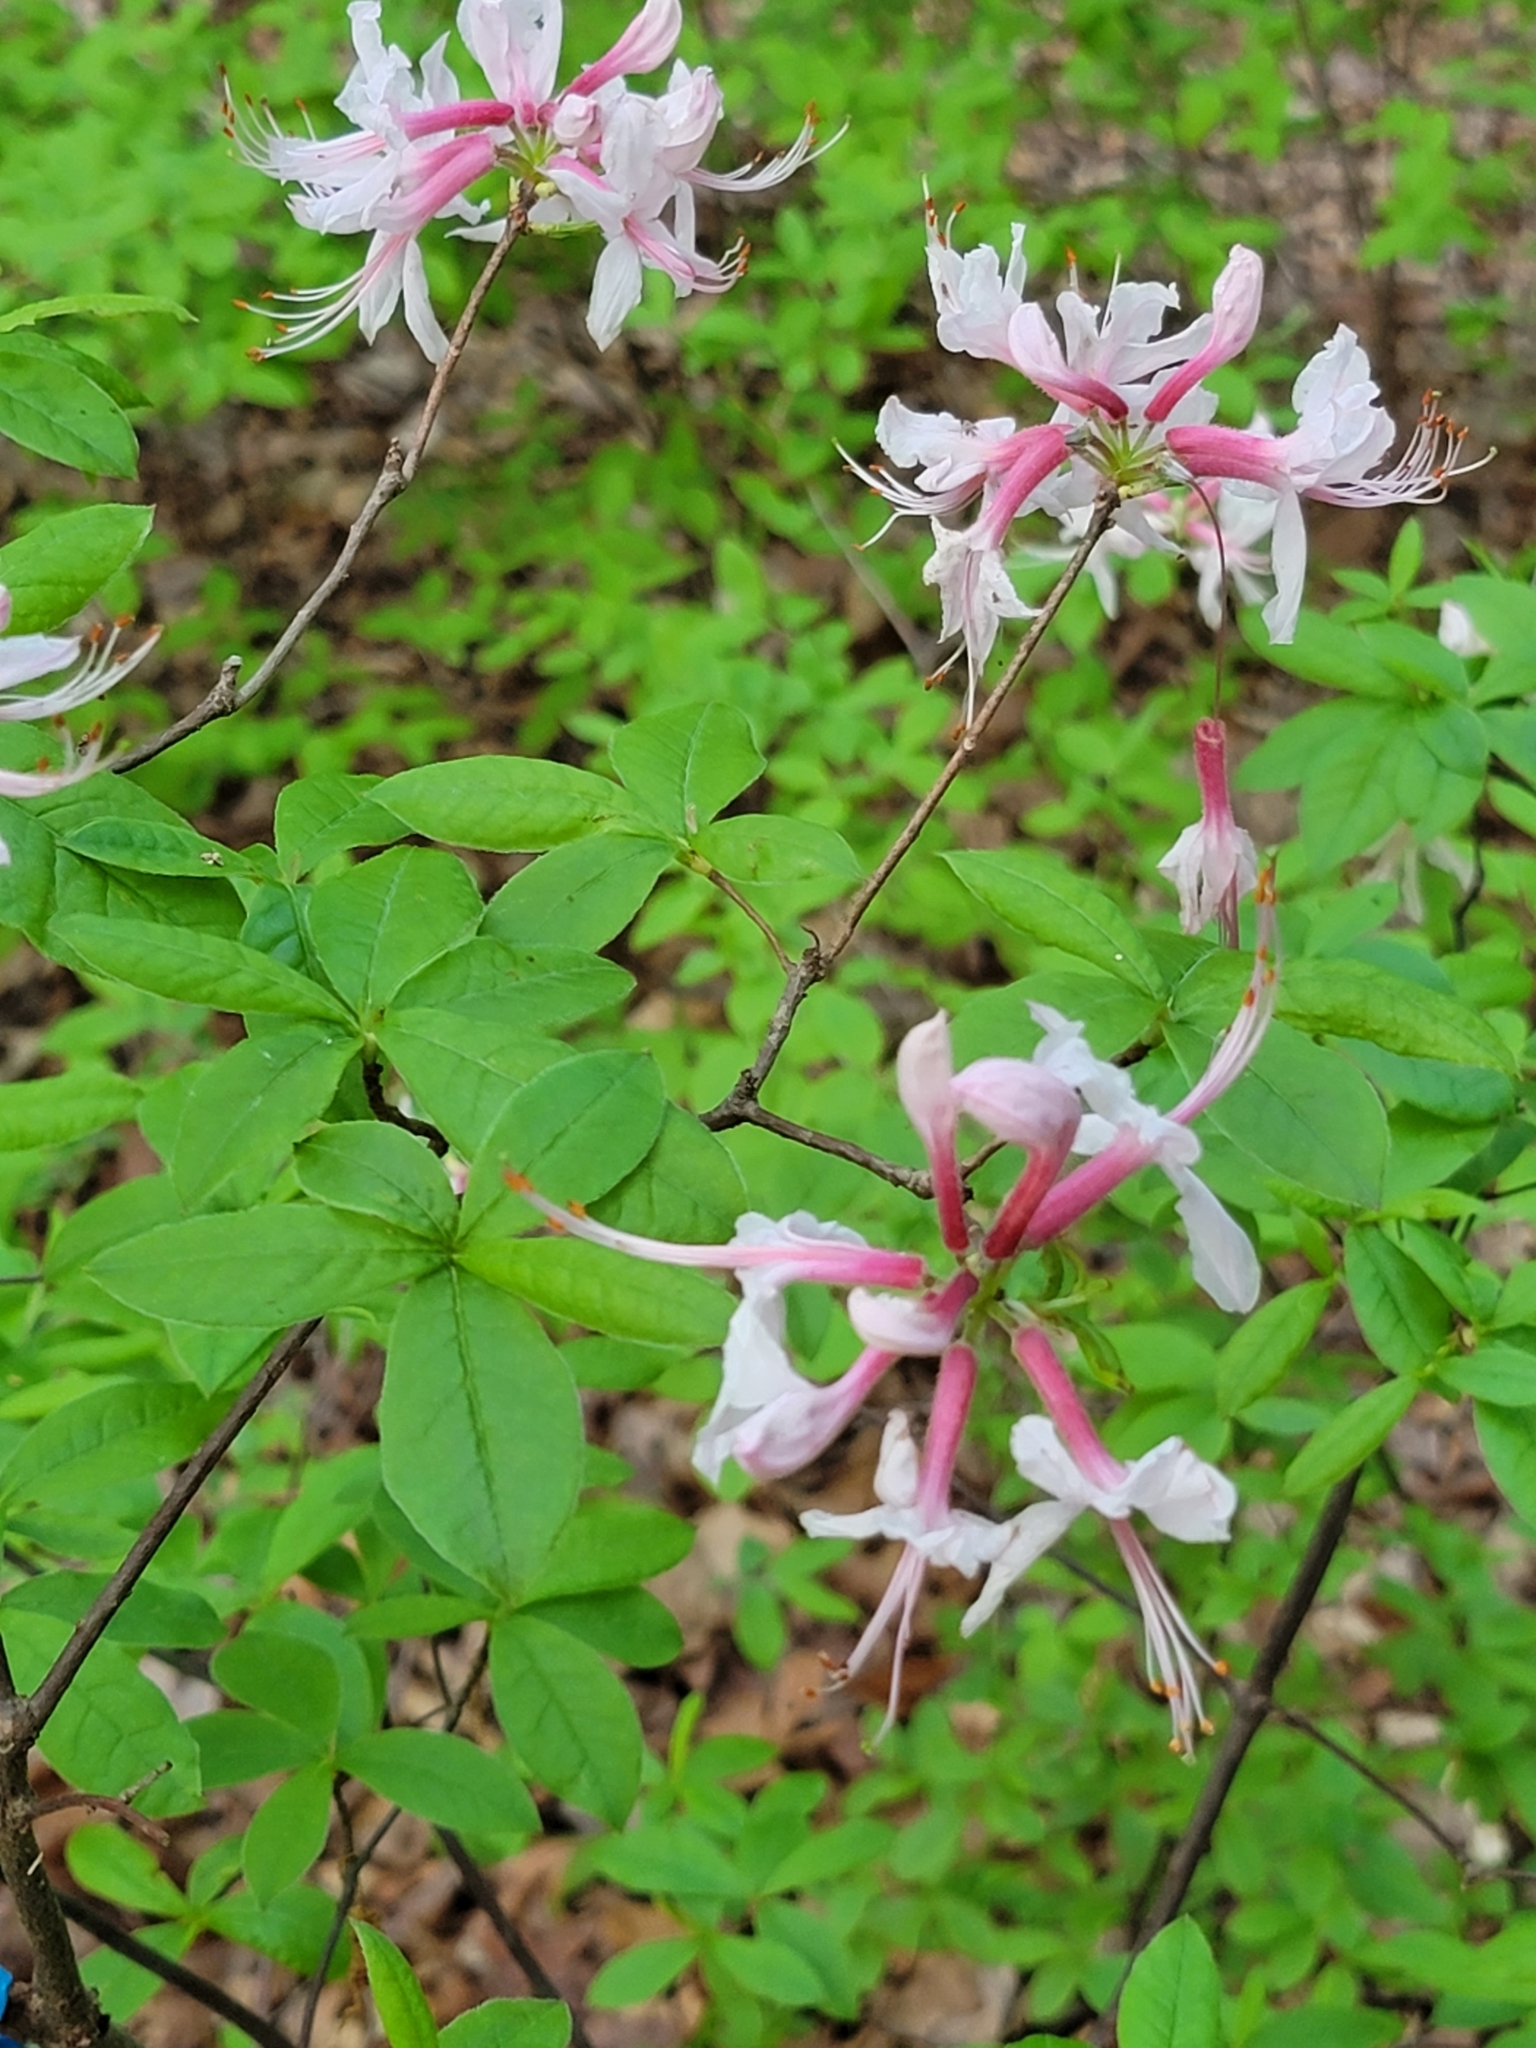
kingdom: Plantae
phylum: Tracheophyta
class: Magnoliopsida
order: Ericales
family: Ericaceae
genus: Rhododendron
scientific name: Rhododendron periclymenoides
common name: Election-pink
